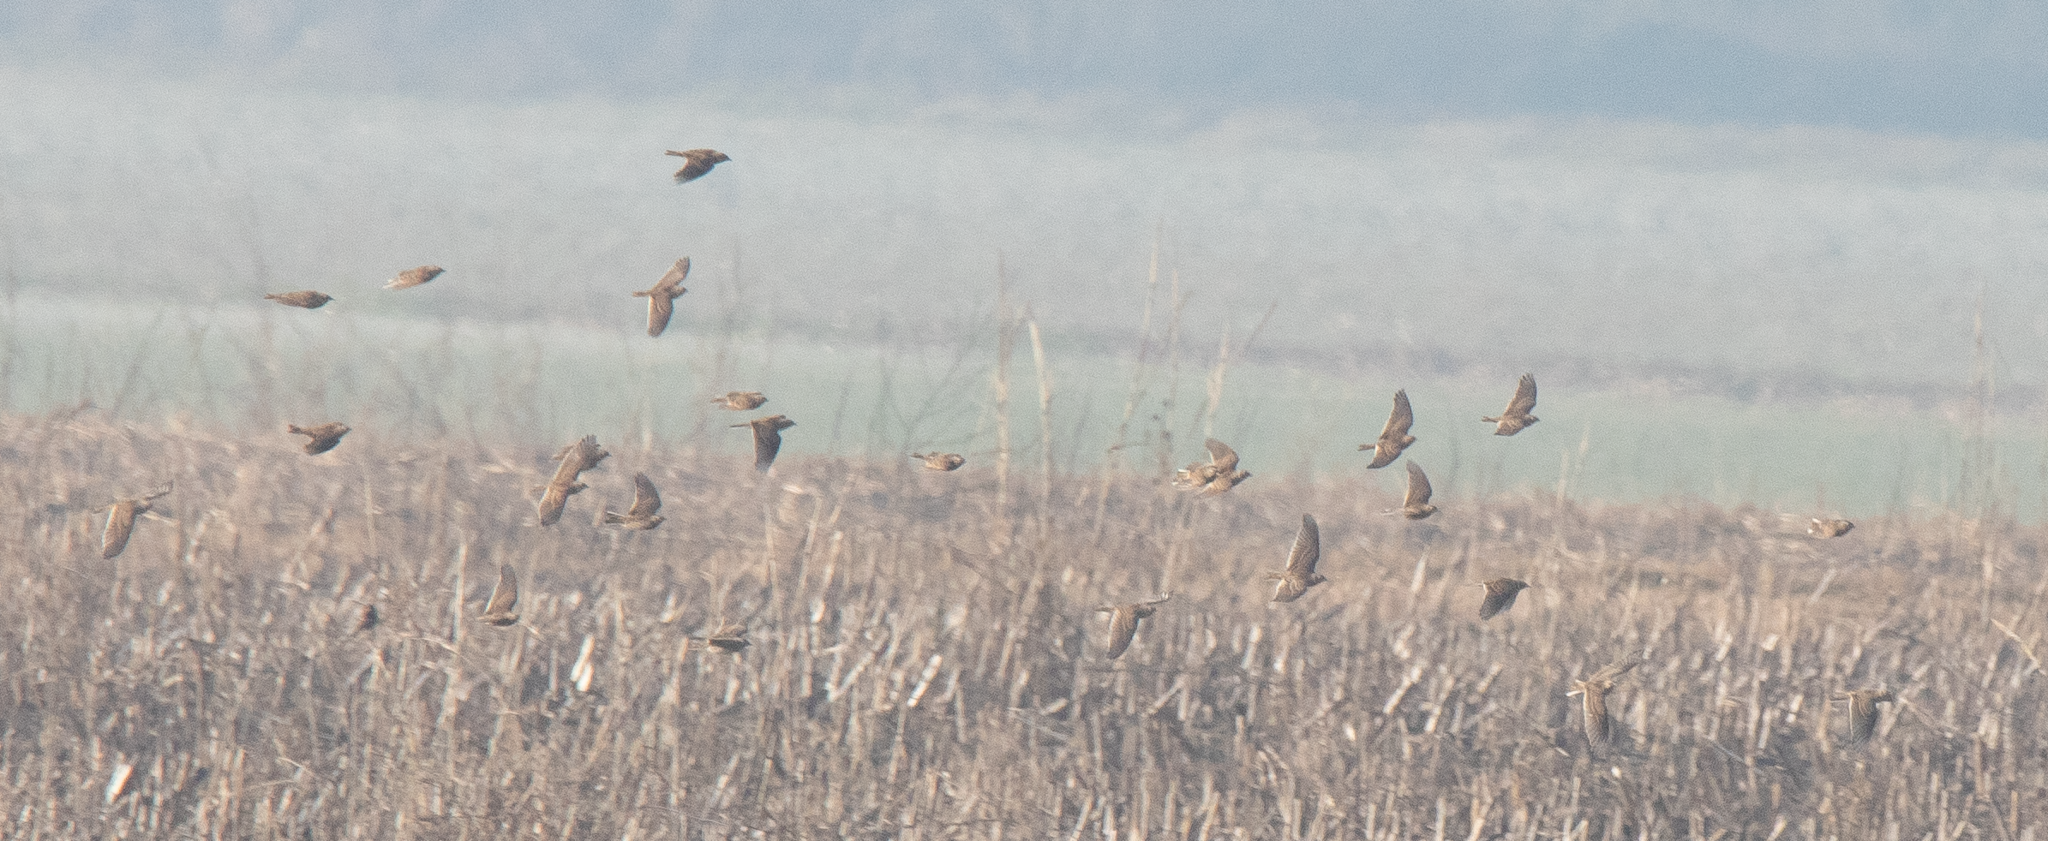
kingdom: Animalia
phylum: Chordata
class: Aves
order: Passeriformes
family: Alaudidae
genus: Alauda
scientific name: Alauda arvensis
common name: Eurasian skylark
